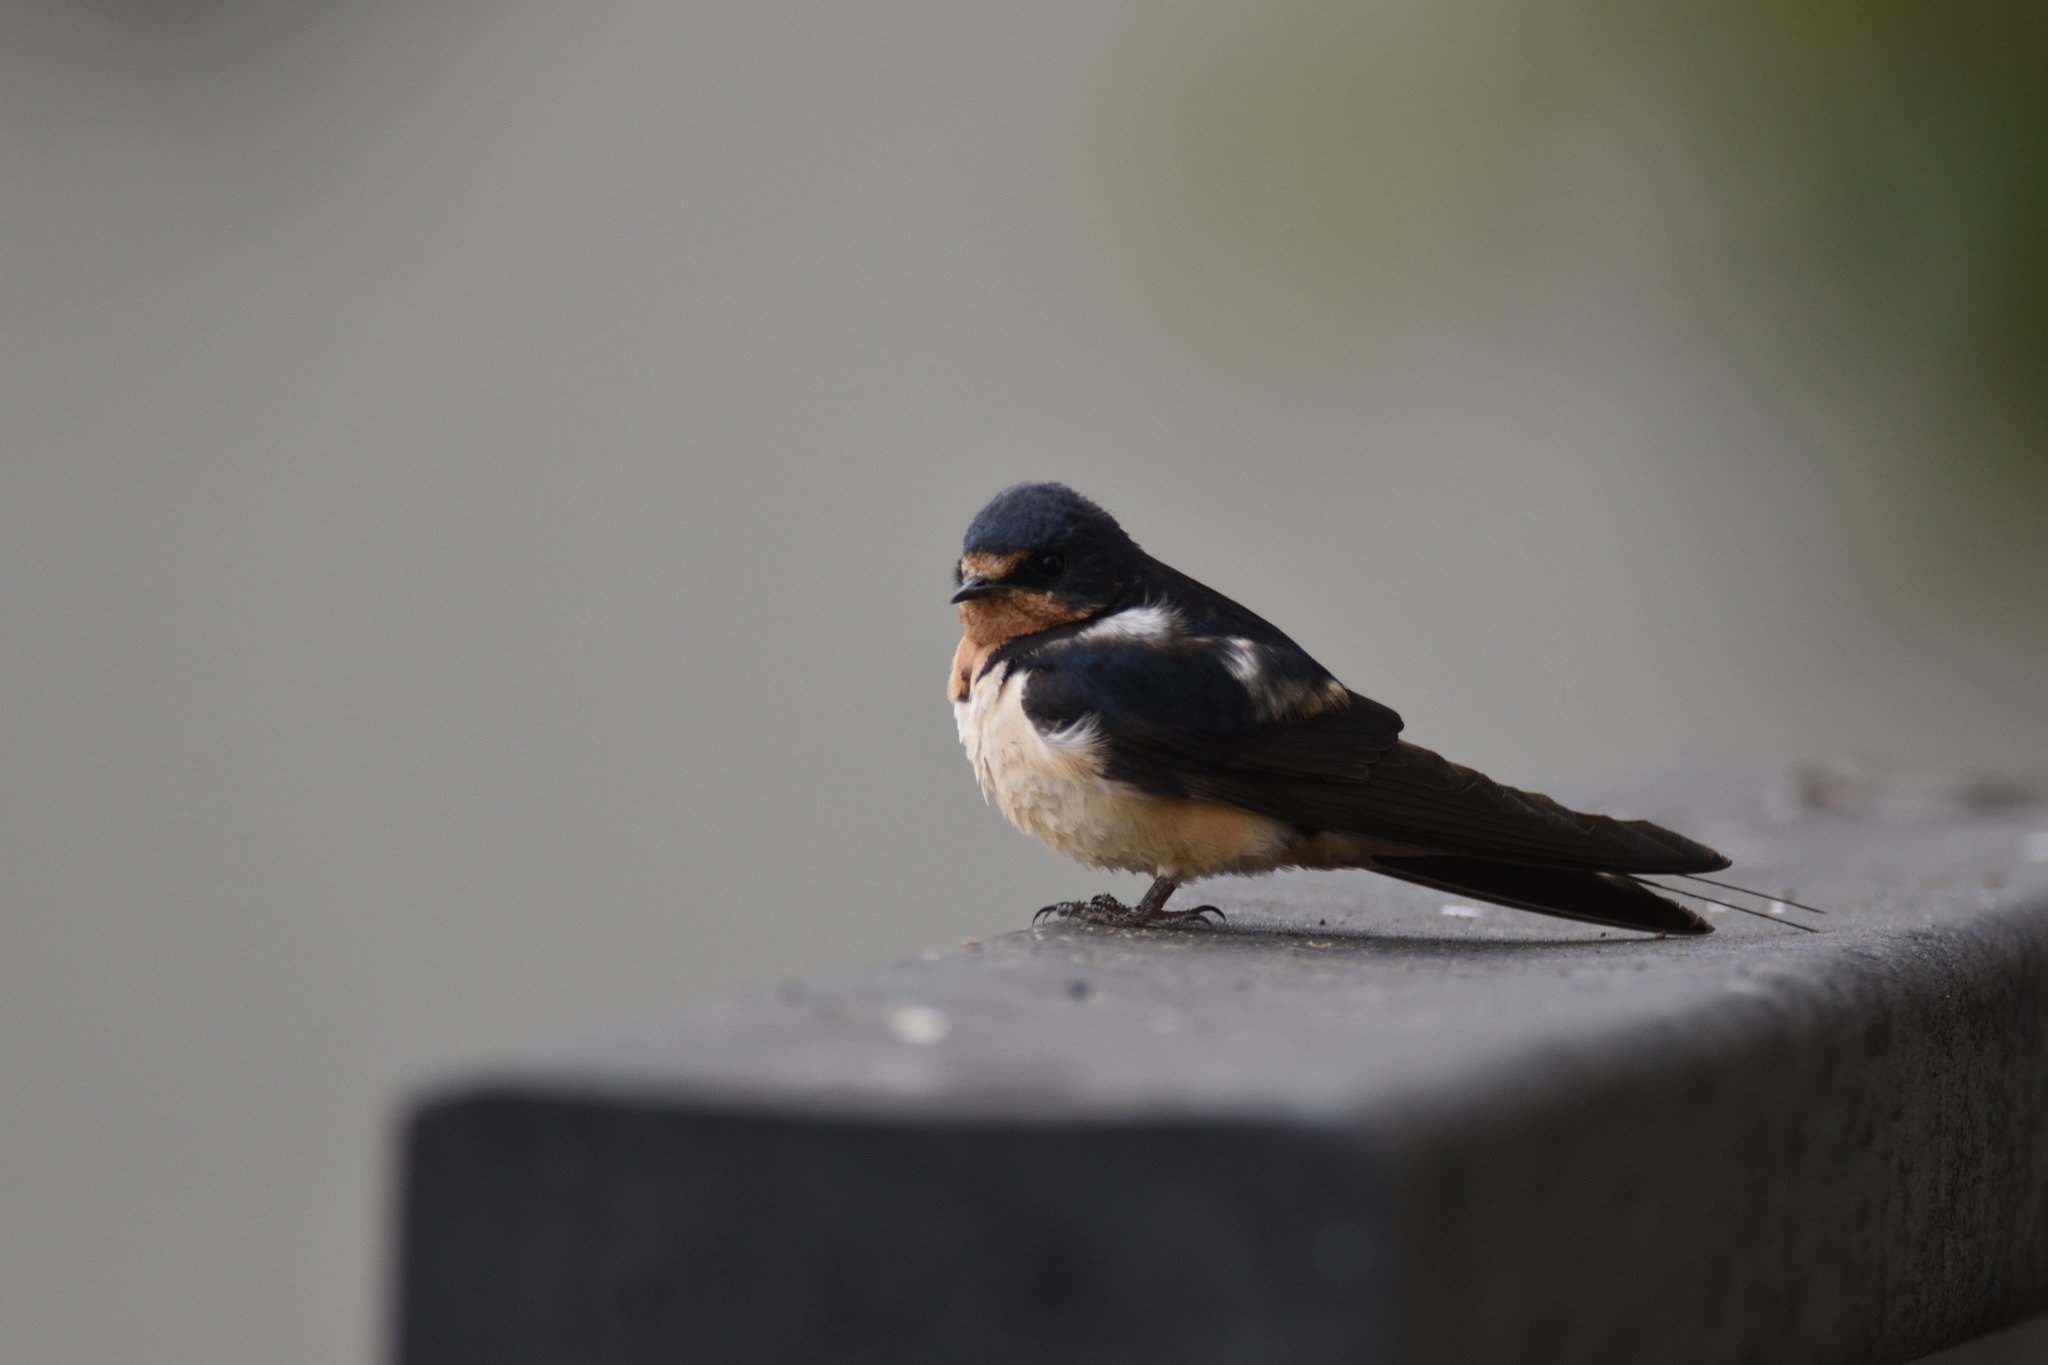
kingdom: Animalia
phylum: Chordata
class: Aves
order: Passeriformes
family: Hirundinidae
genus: Hirundo
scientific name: Hirundo rustica
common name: Barn swallow
